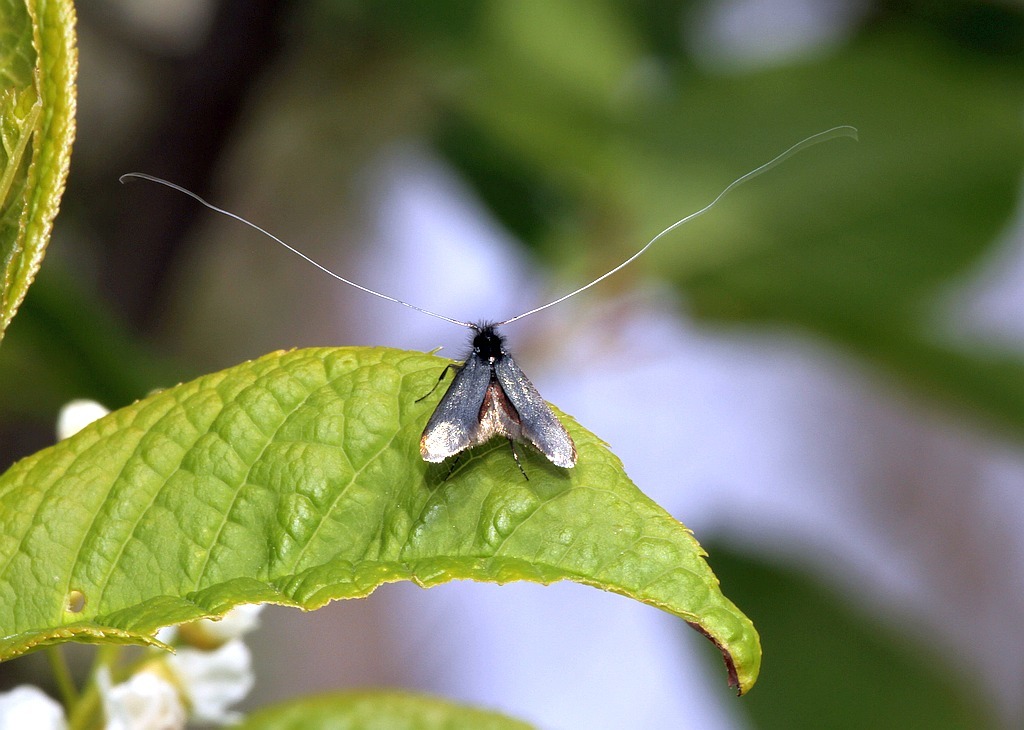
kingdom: Animalia
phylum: Arthropoda
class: Insecta
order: Lepidoptera
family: Adelidae
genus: Adela
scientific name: Adela viridella
